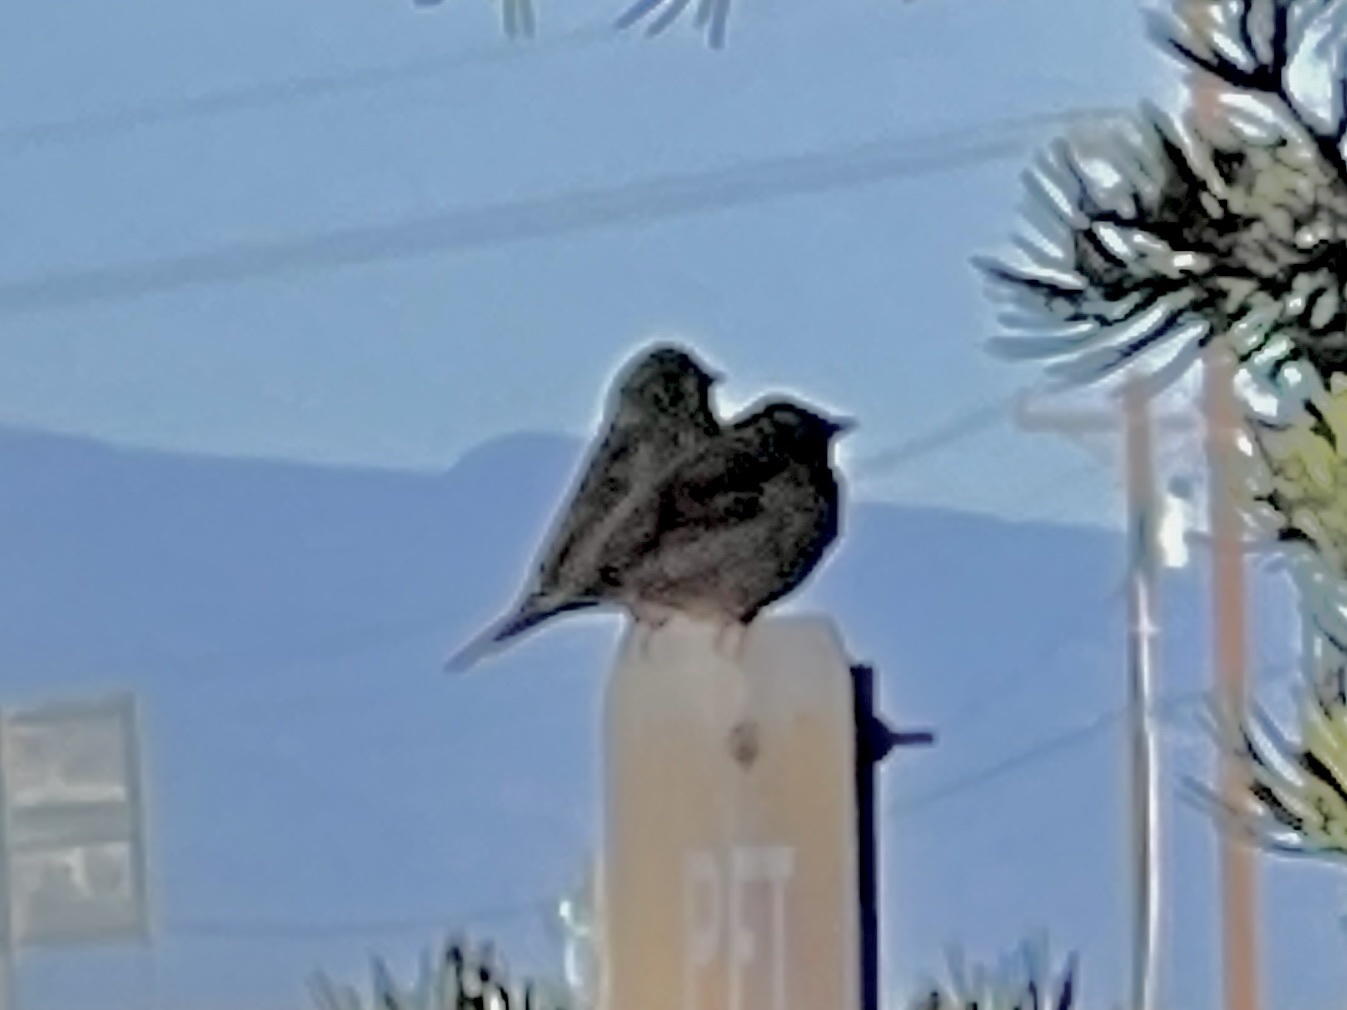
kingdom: Animalia
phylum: Chordata
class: Aves
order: Passeriformes
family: Passeridae
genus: Passer
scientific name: Passer domesticus
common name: House sparrow
